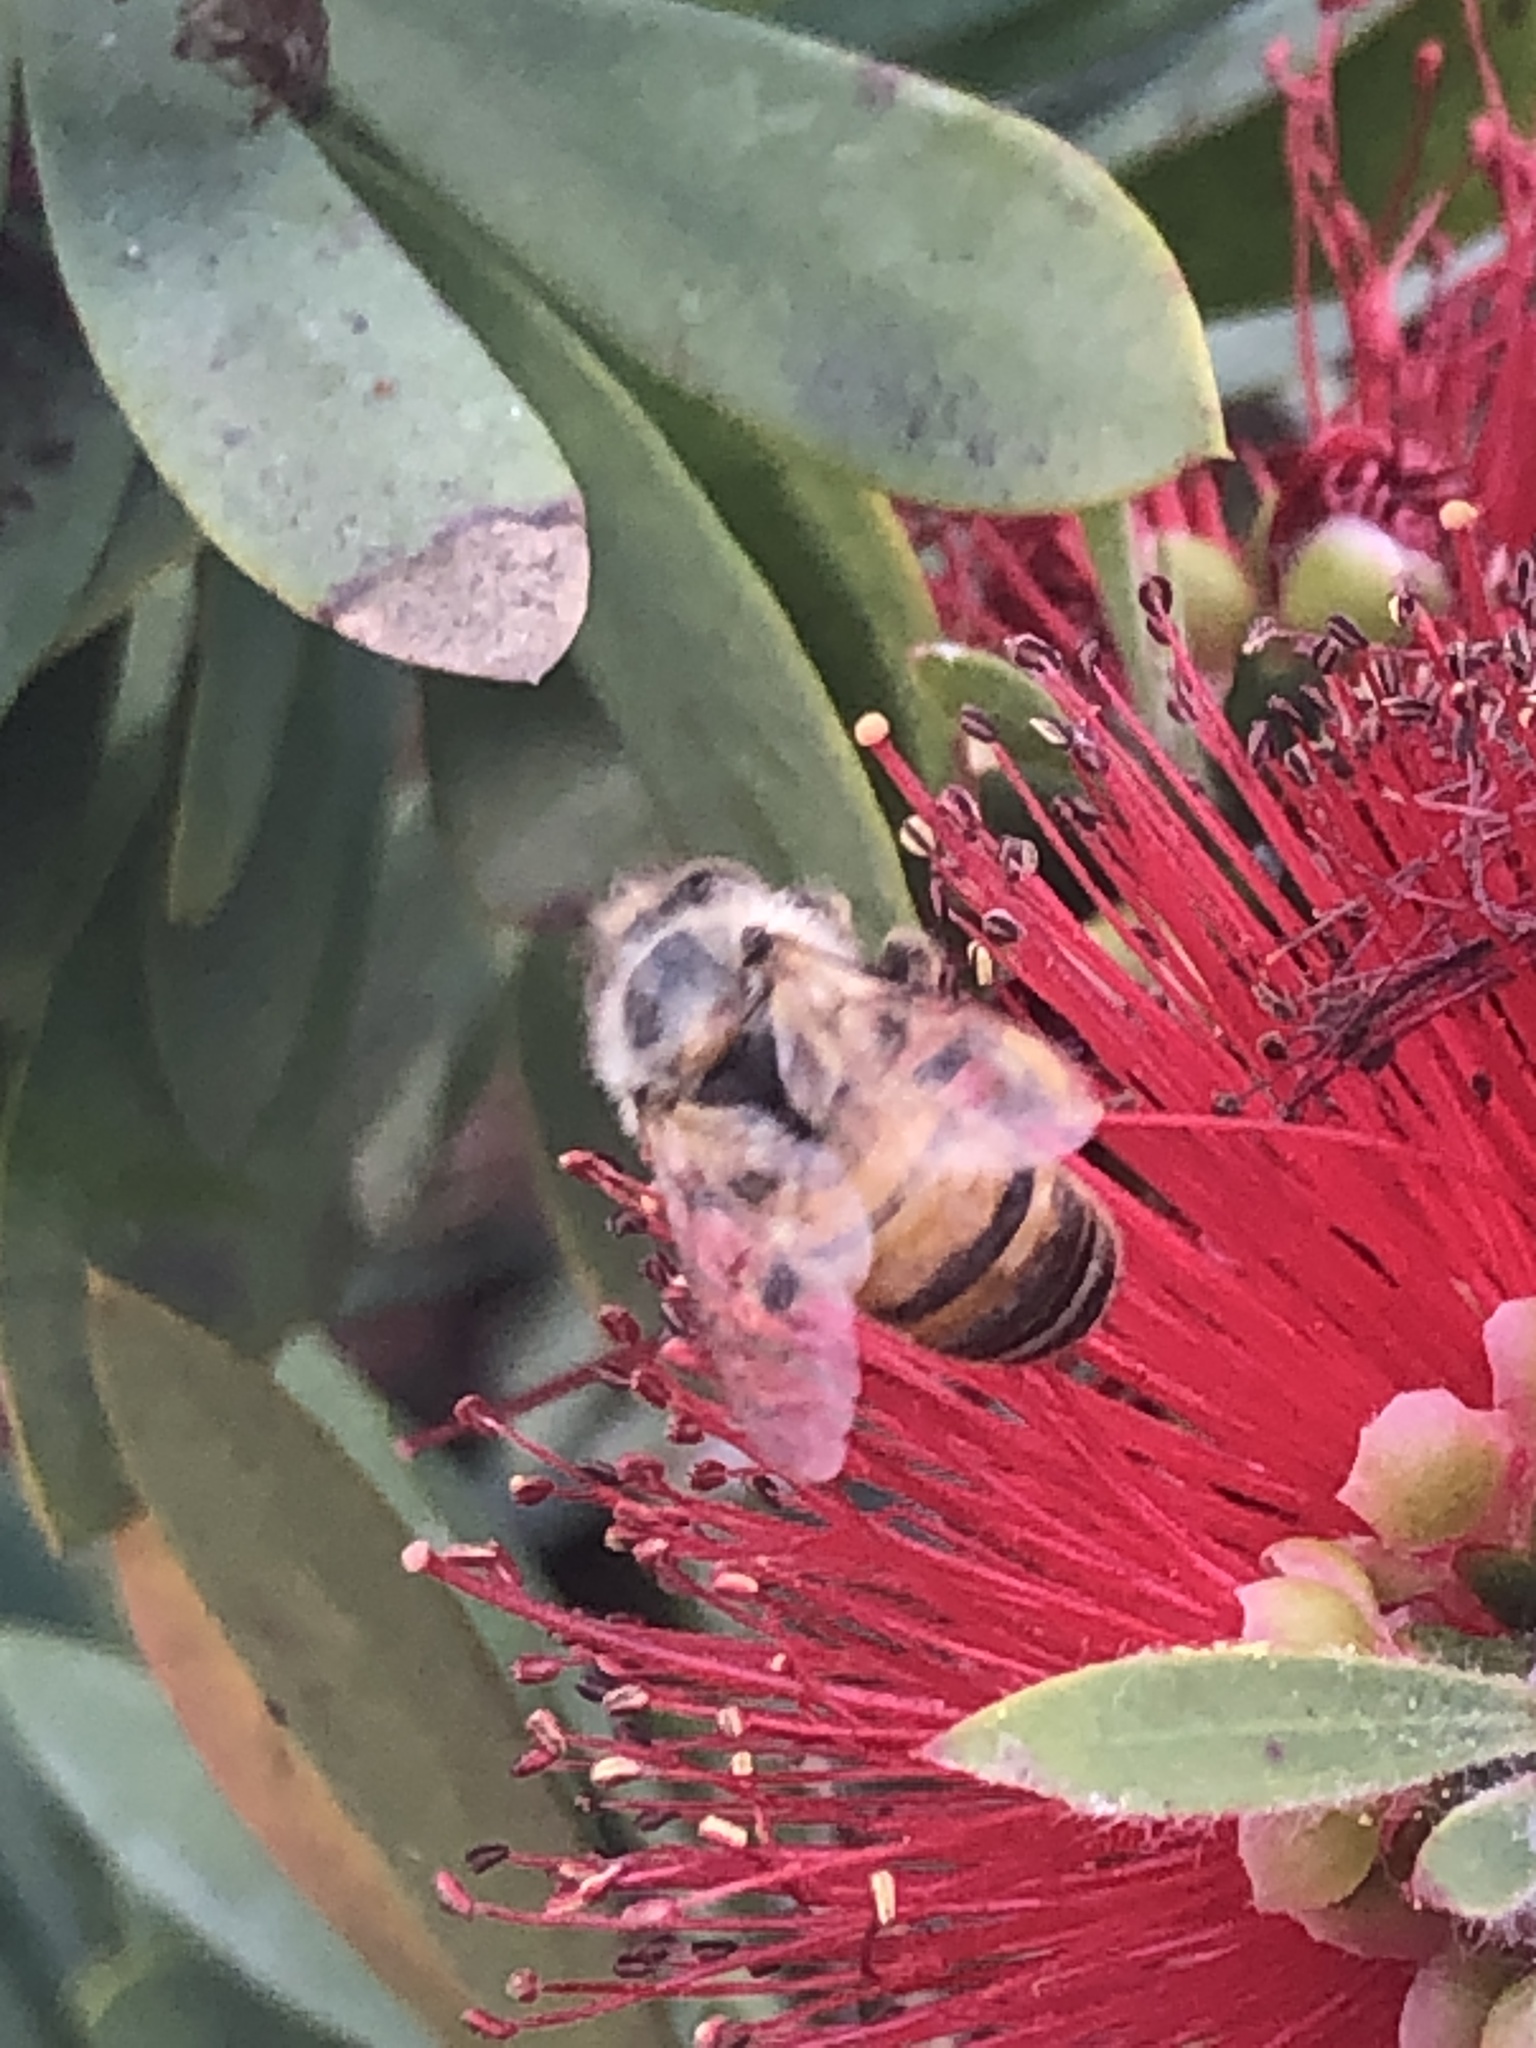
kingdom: Animalia
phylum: Arthropoda
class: Insecta
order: Hymenoptera
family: Apidae
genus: Apis
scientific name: Apis mellifera
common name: Honey bee
